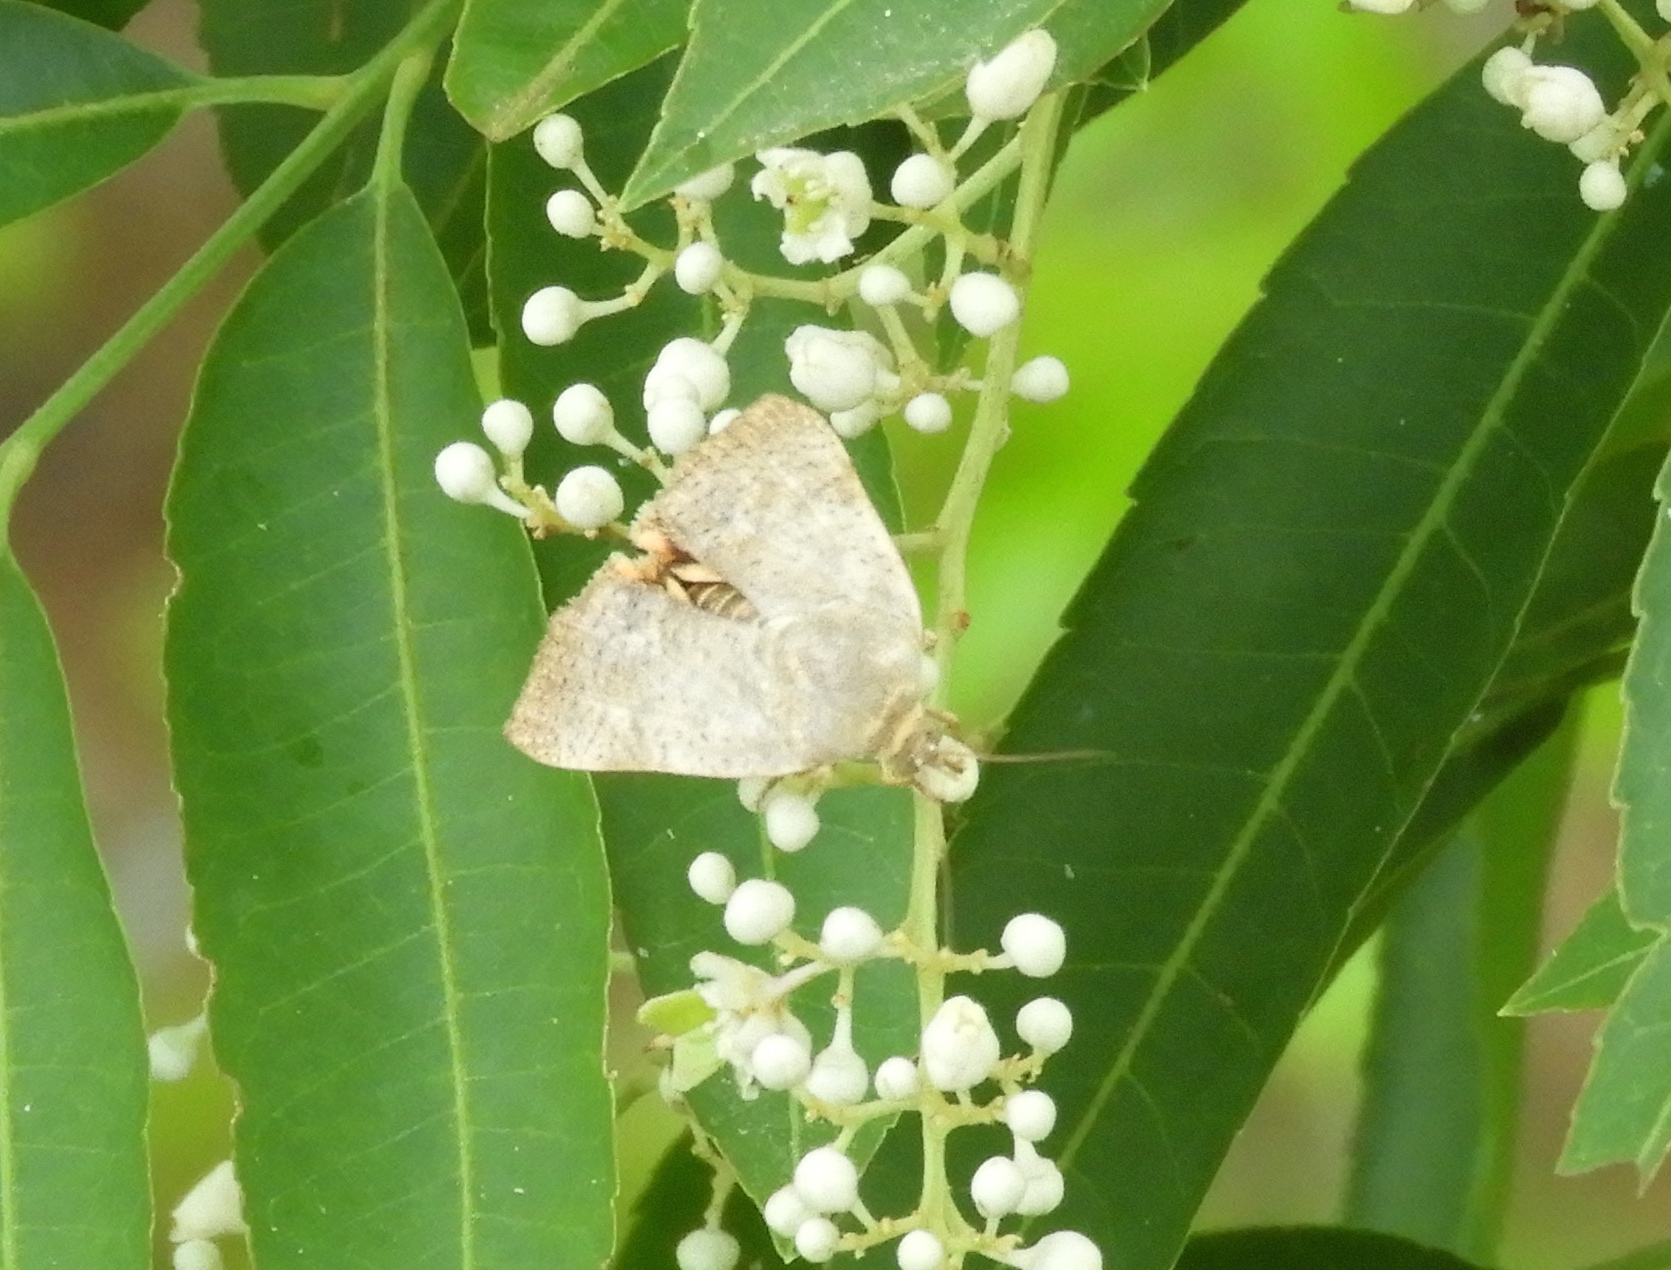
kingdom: Animalia
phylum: Arthropoda
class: Insecta
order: Lepidoptera
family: Hyblaeidae
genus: Hyblaea
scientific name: Hyblaea
